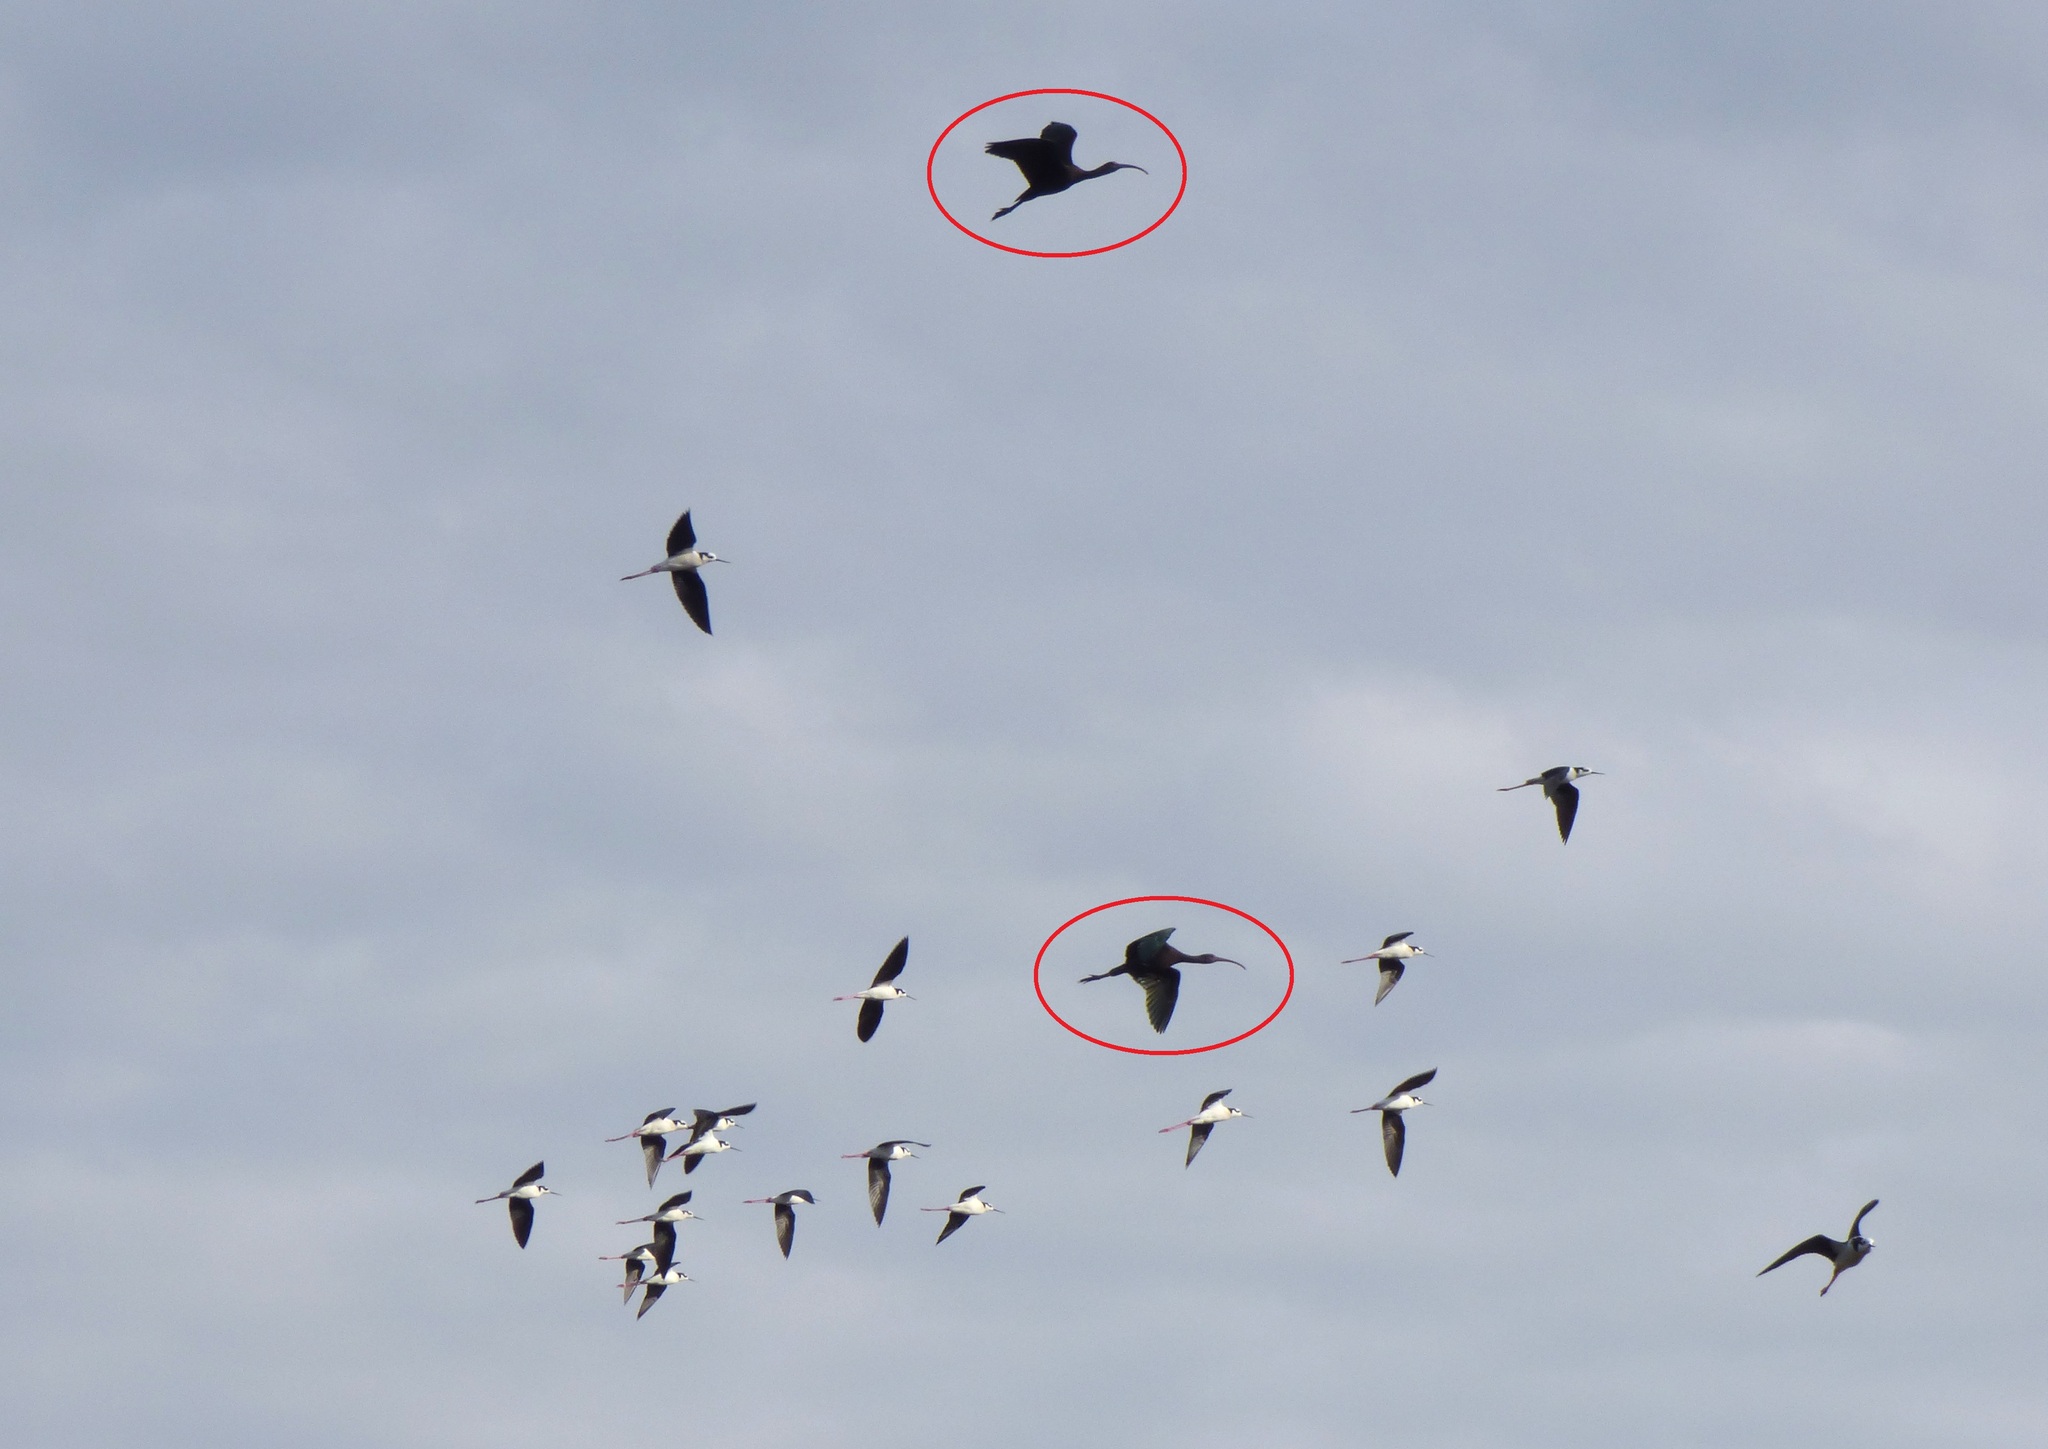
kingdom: Animalia
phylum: Chordata
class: Aves
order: Pelecaniformes
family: Threskiornithidae
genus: Plegadis
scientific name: Plegadis chihi
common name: White-faced ibis
